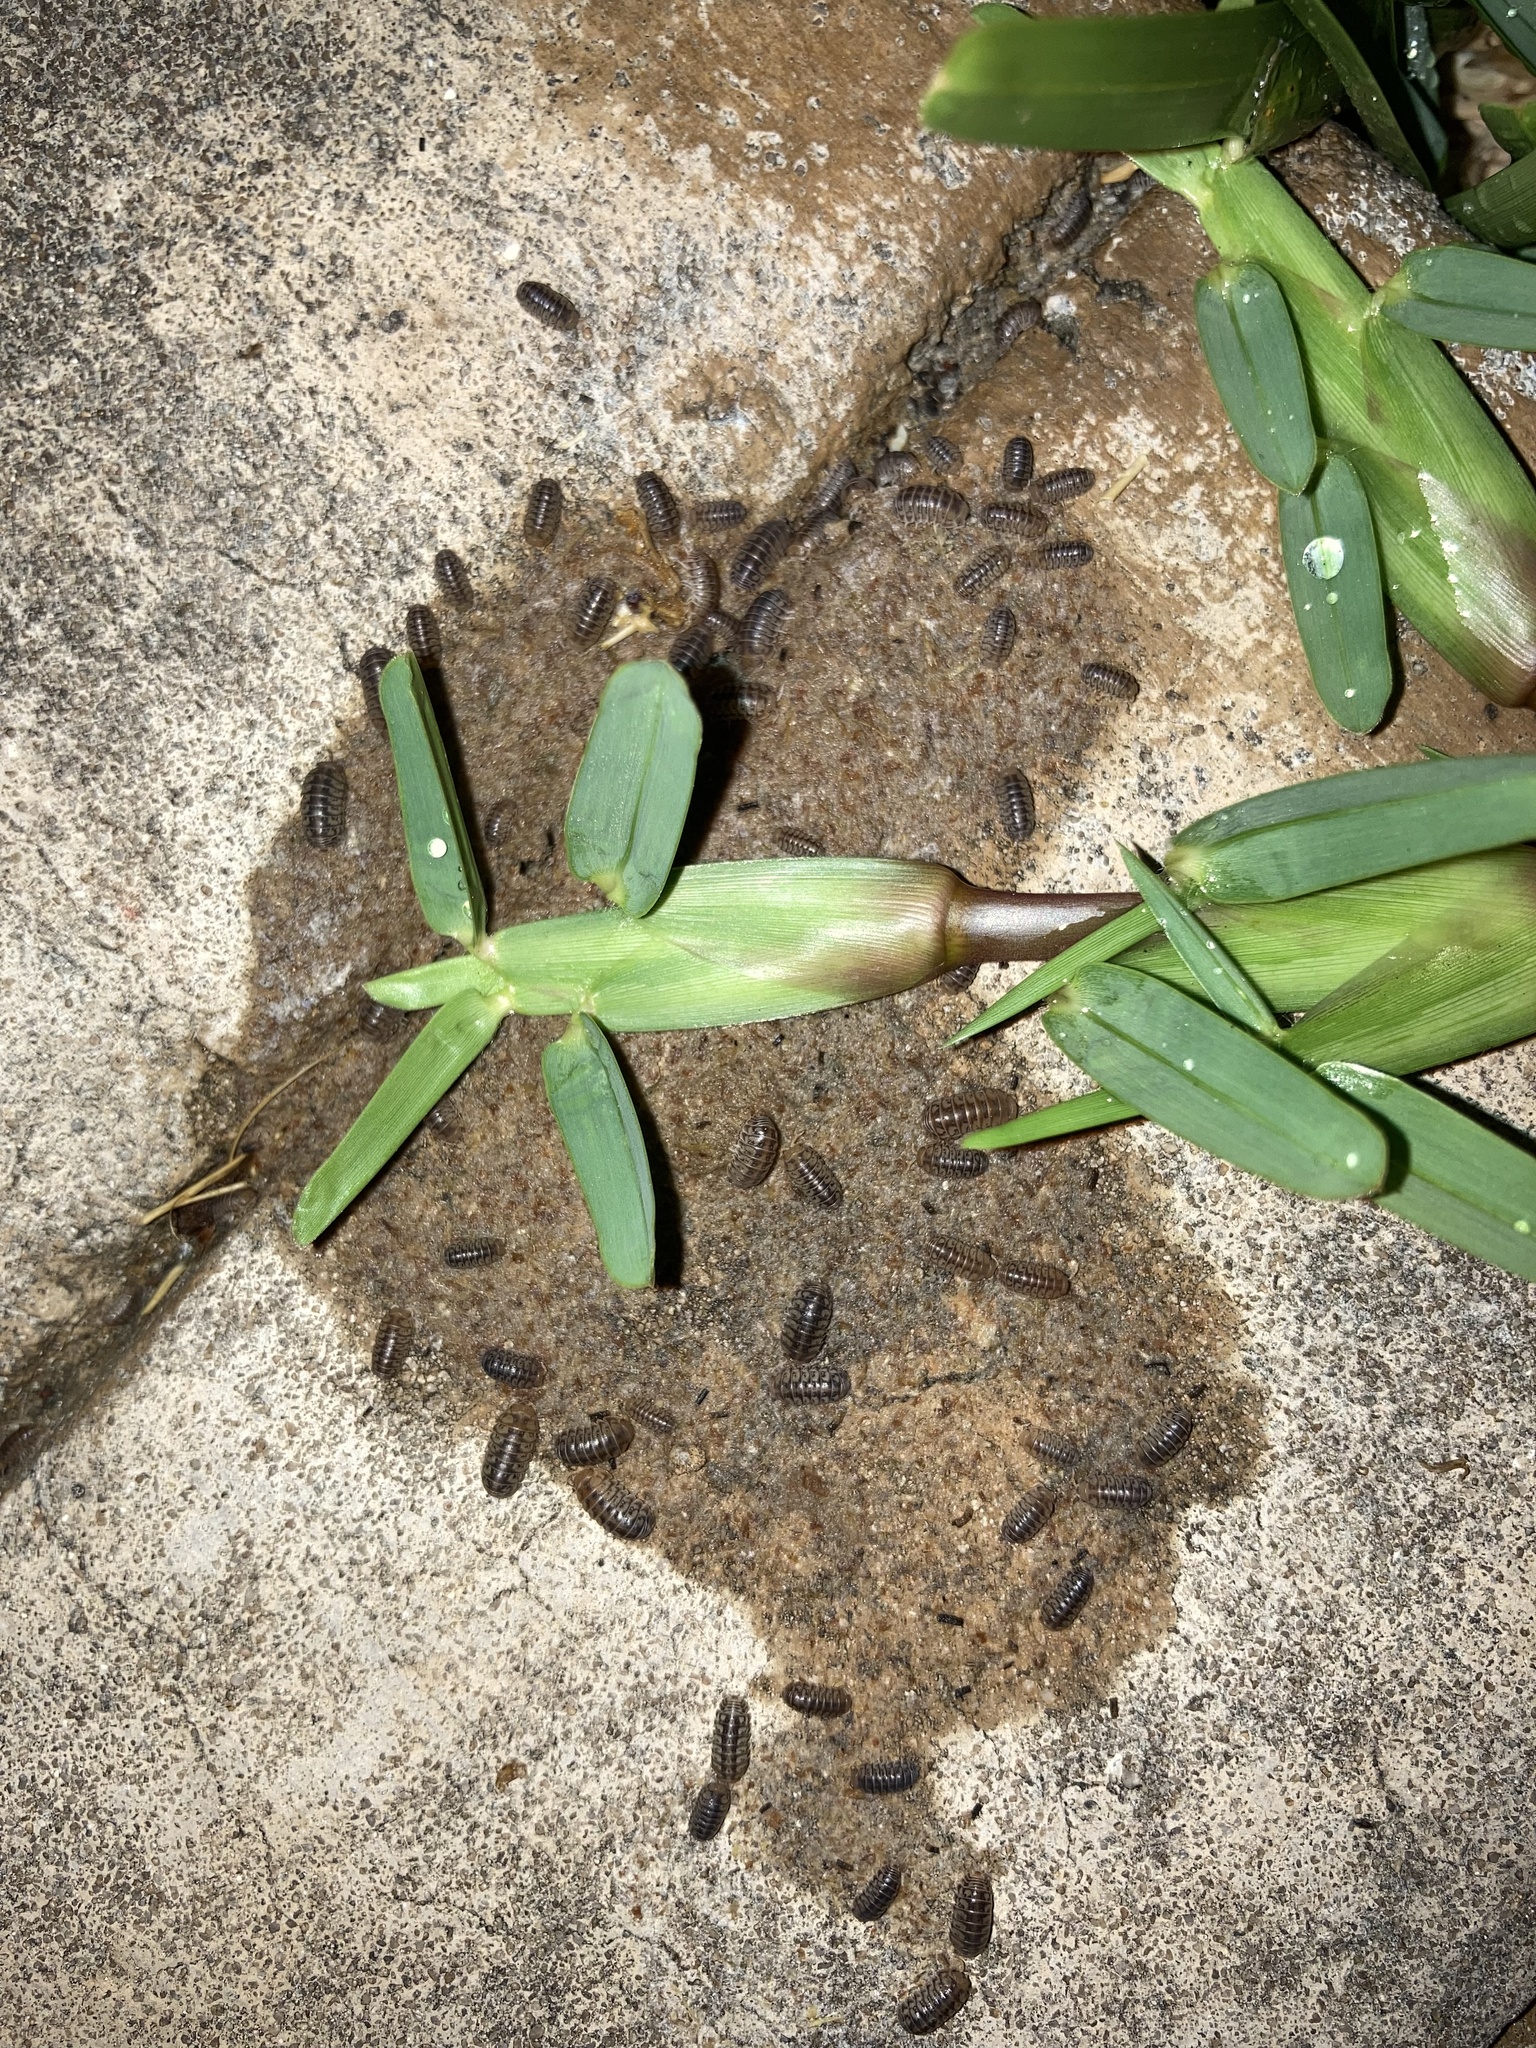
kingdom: Animalia
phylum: Arthropoda
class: Malacostraca
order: Isopoda
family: Armadillidae
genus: Venezillo
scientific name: Venezillo parvus
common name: Pillbug
